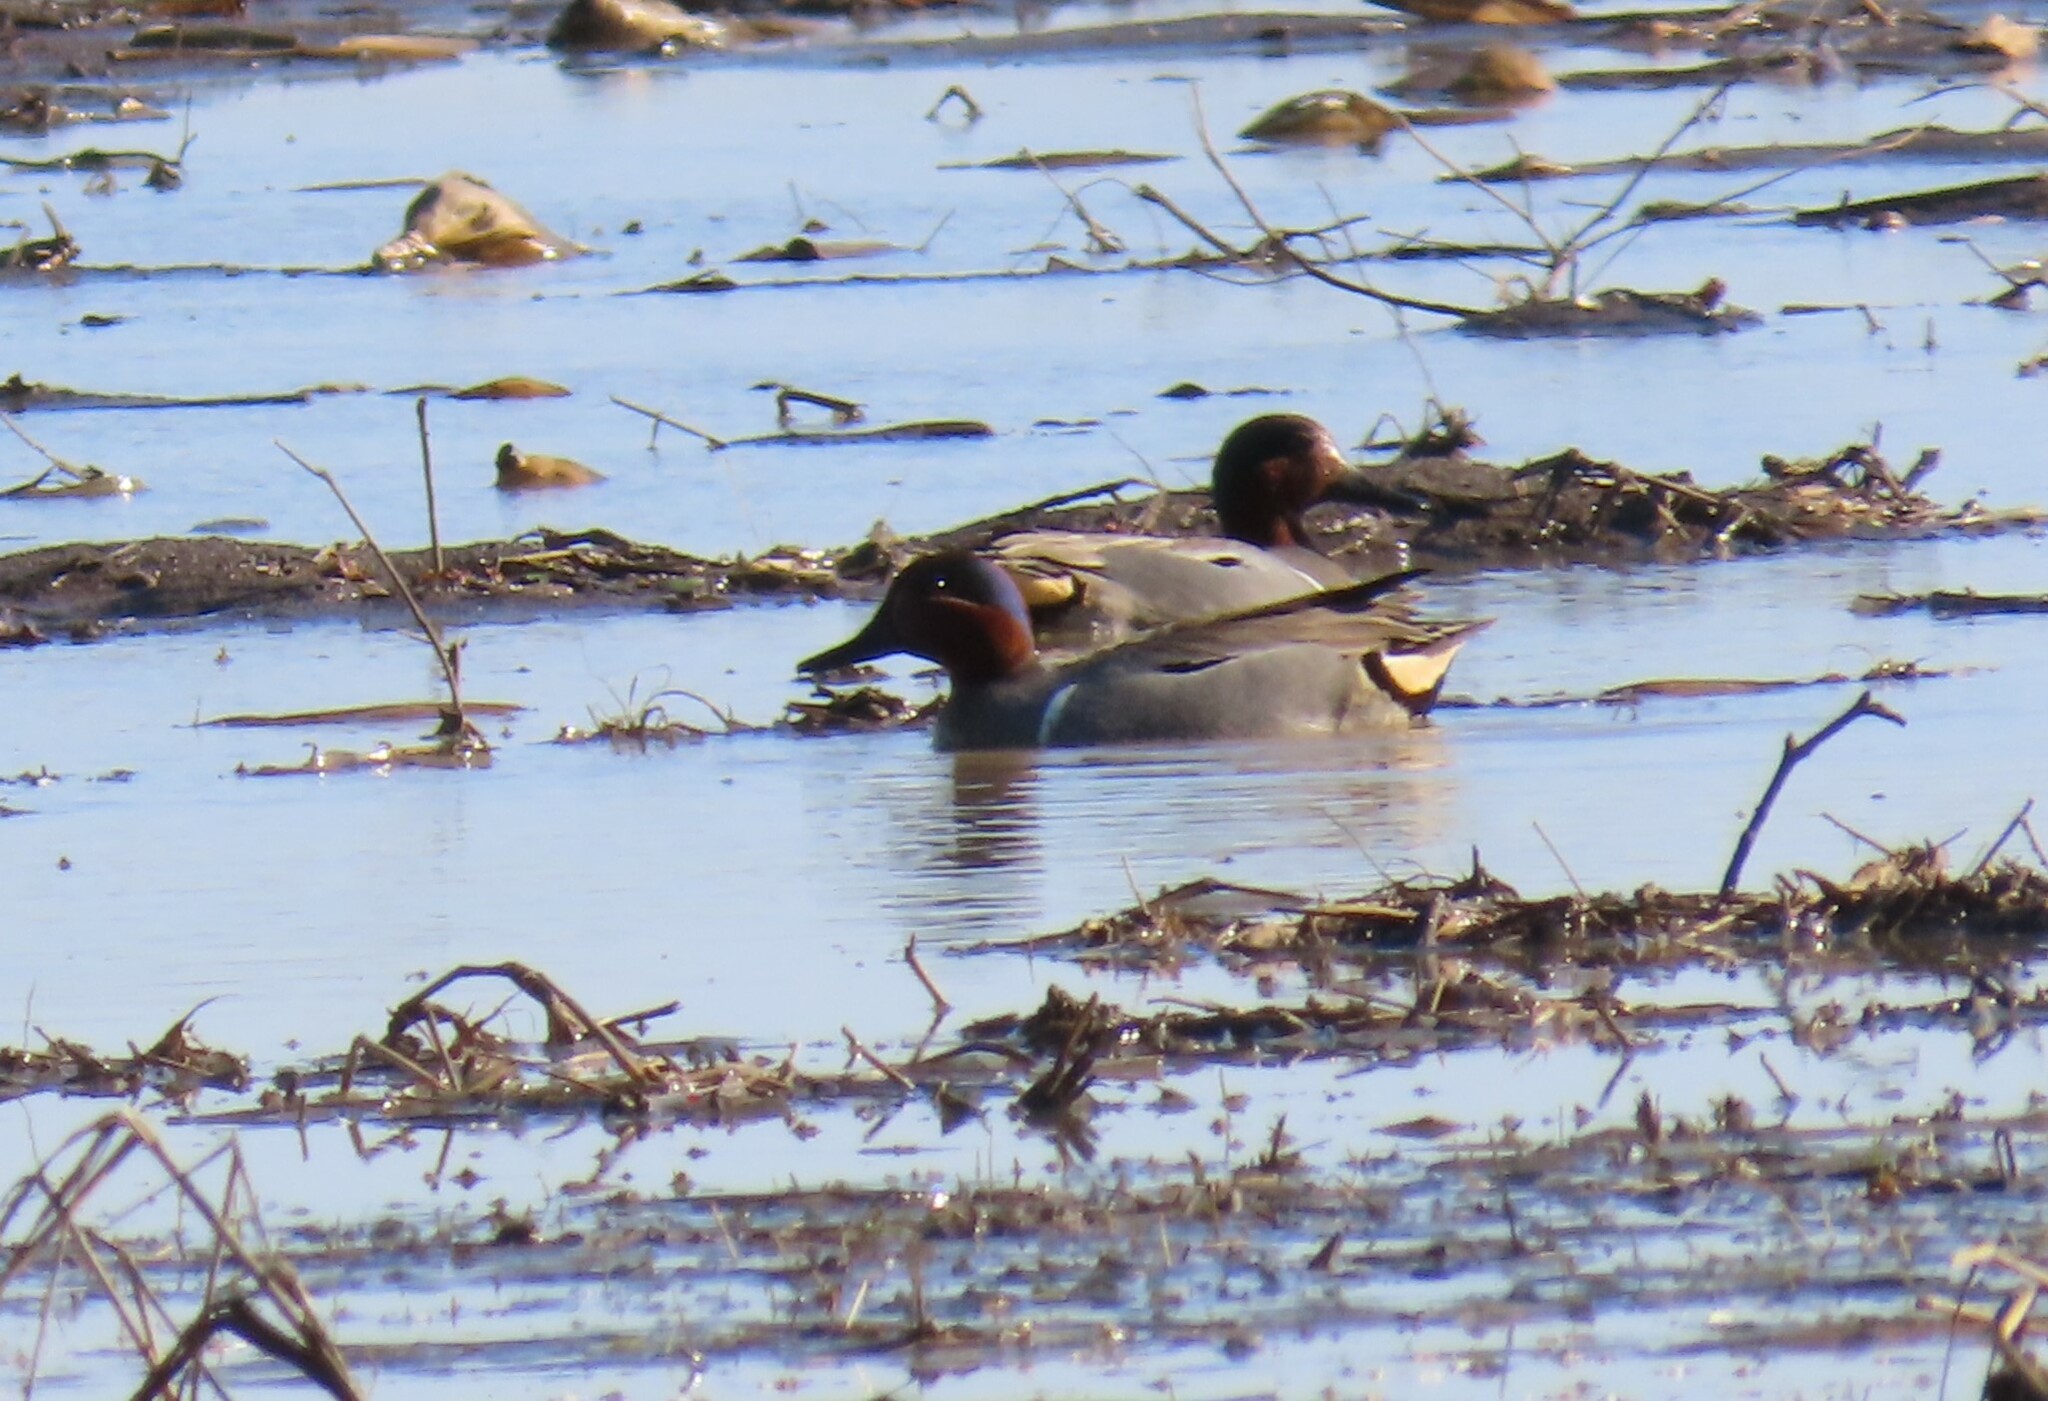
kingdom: Animalia
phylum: Chordata
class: Aves
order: Anseriformes
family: Anatidae
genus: Anas
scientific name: Anas crecca
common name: Eurasian teal
